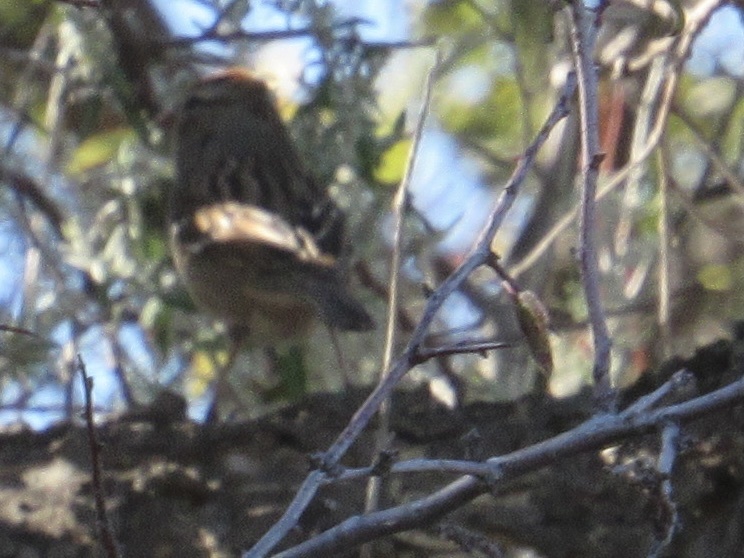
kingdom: Animalia
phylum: Chordata
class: Aves
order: Passeriformes
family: Passerellidae
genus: Spizella
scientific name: Spizella passerina
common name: Chipping sparrow
